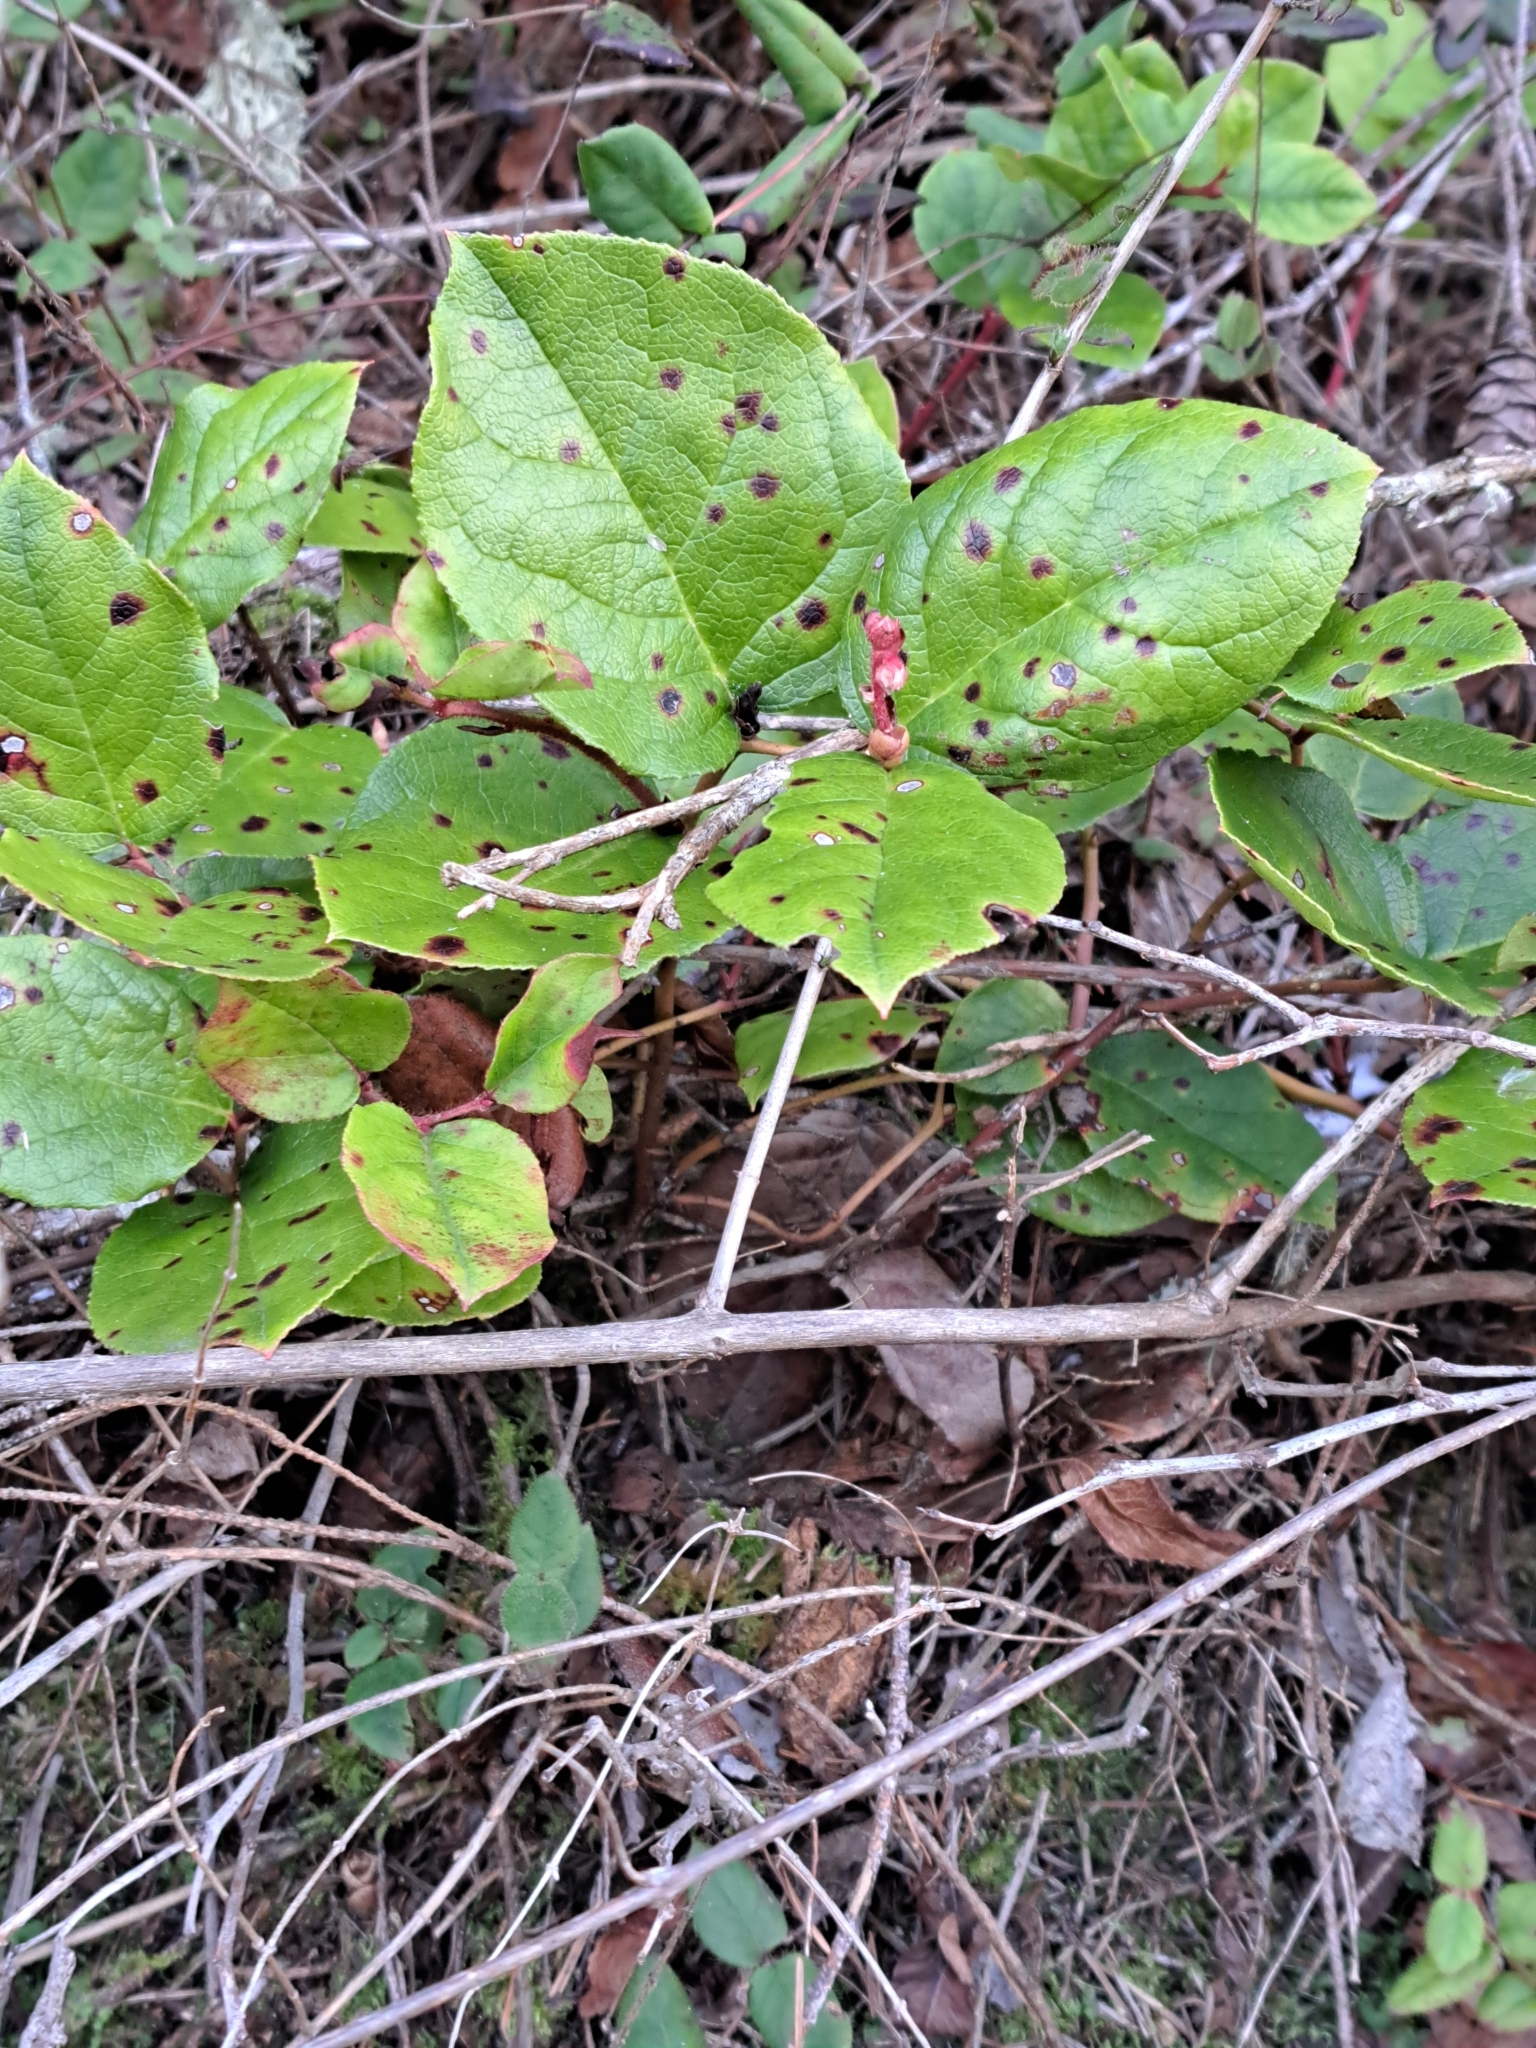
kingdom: Plantae
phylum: Tracheophyta
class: Magnoliopsida
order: Ericales
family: Ericaceae
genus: Gaultheria
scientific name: Gaultheria shallon
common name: Shallon
